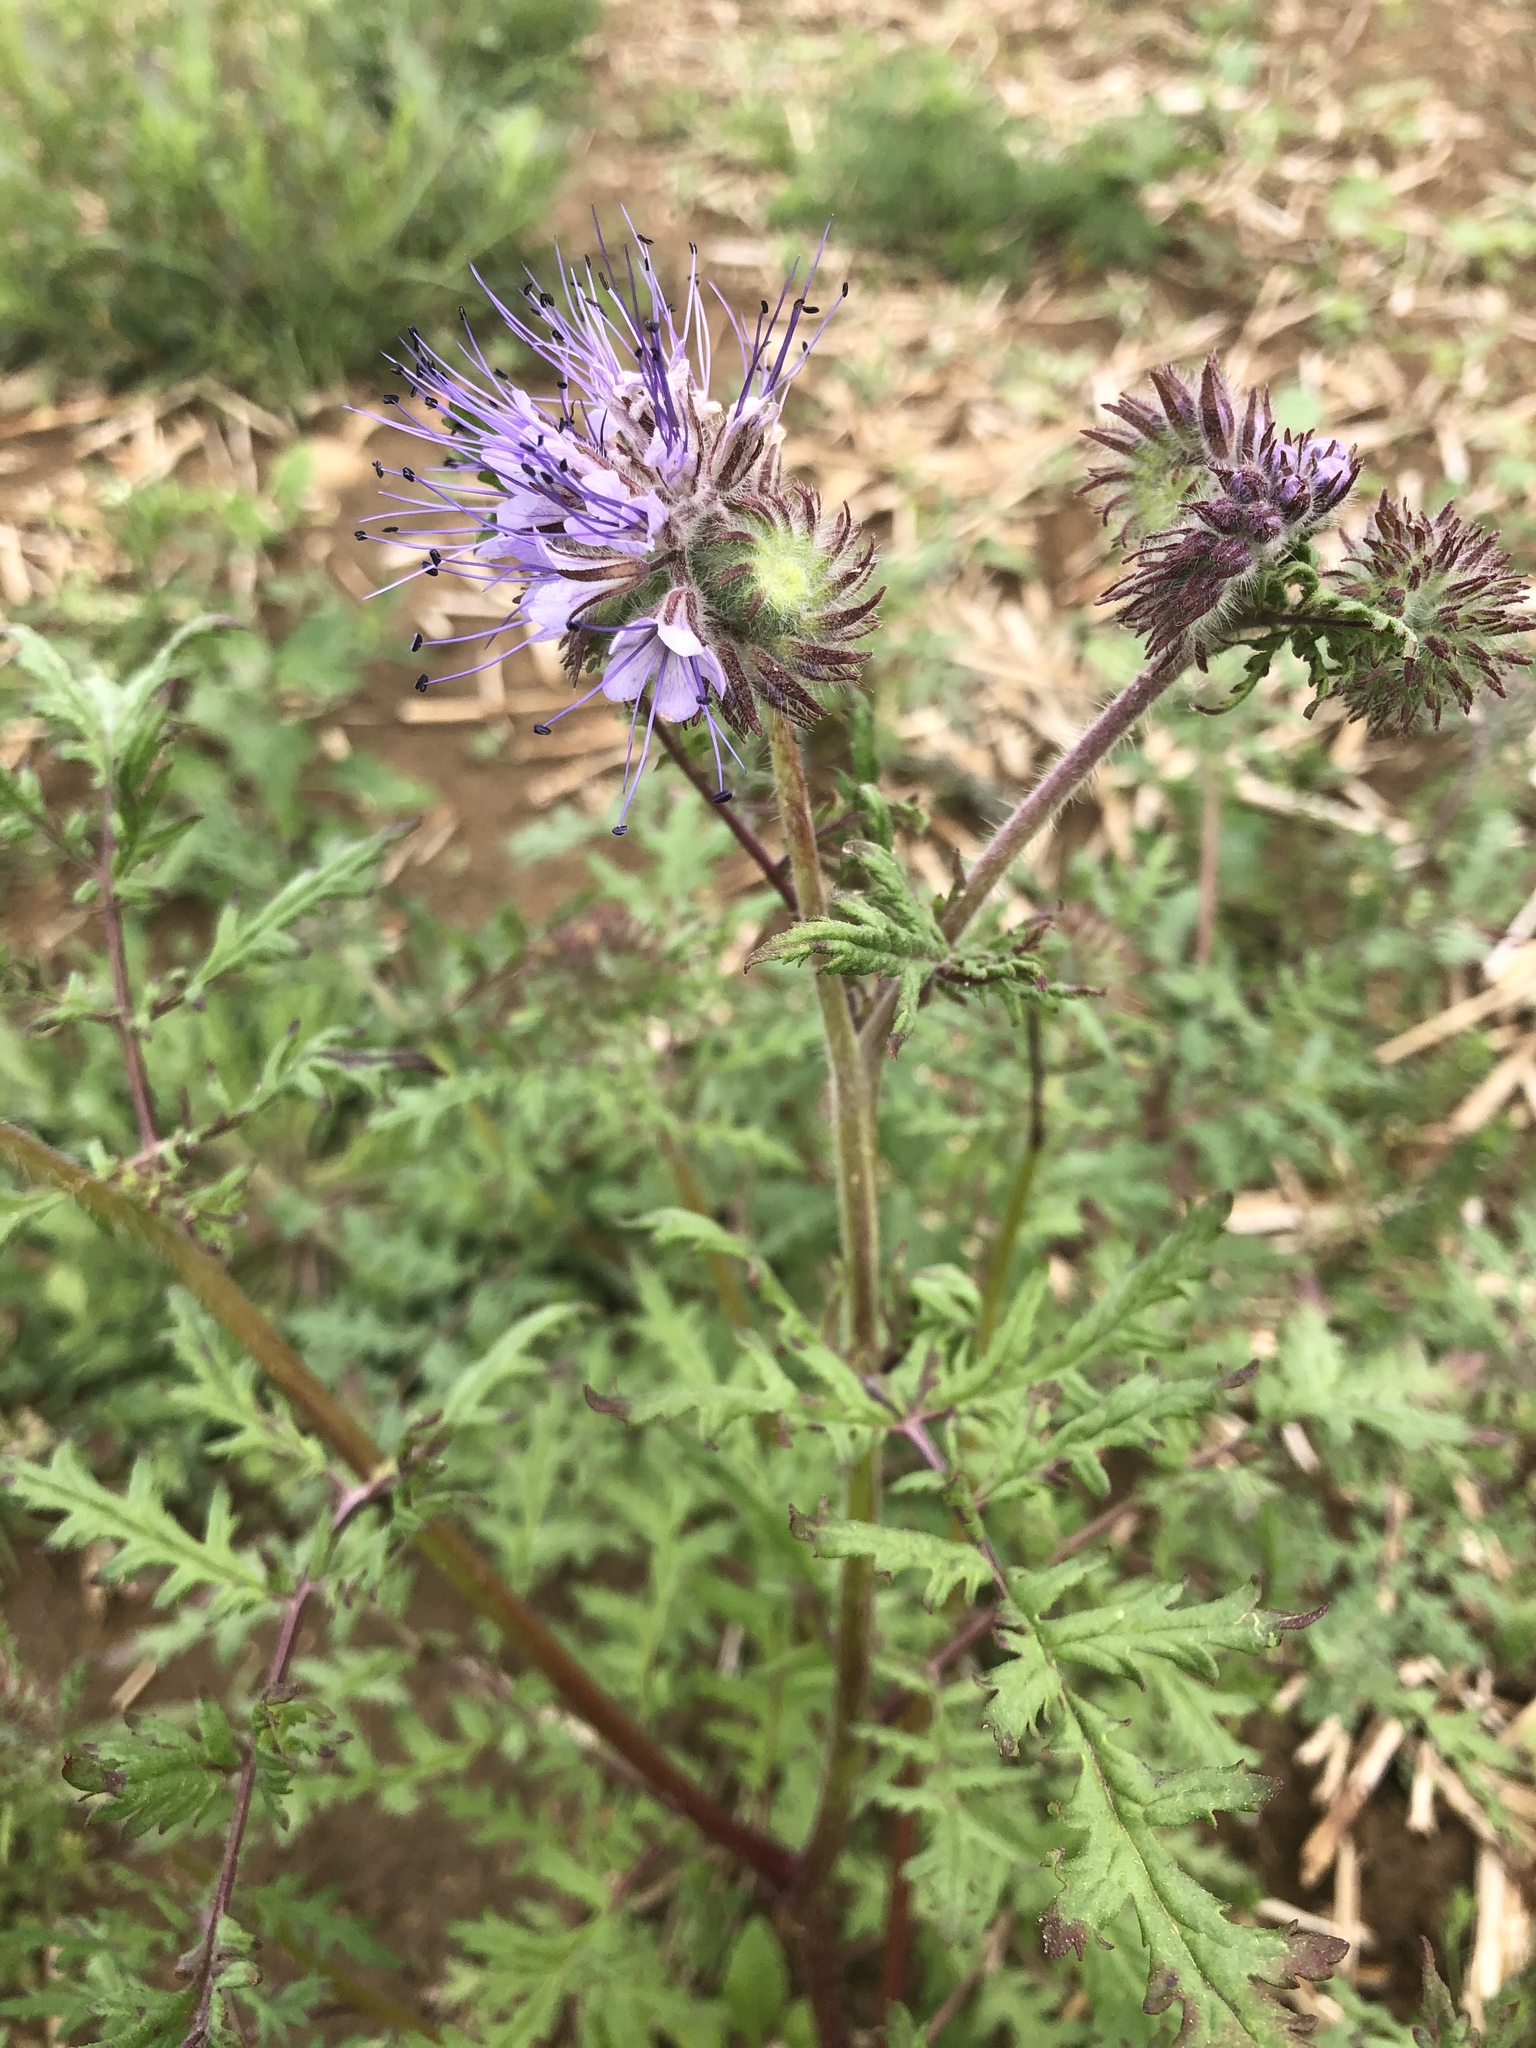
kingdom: Plantae
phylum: Tracheophyta
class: Magnoliopsida
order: Boraginales
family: Hydrophyllaceae
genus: Phacelia
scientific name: Phacelia tanacetifolia
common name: Phacelia
